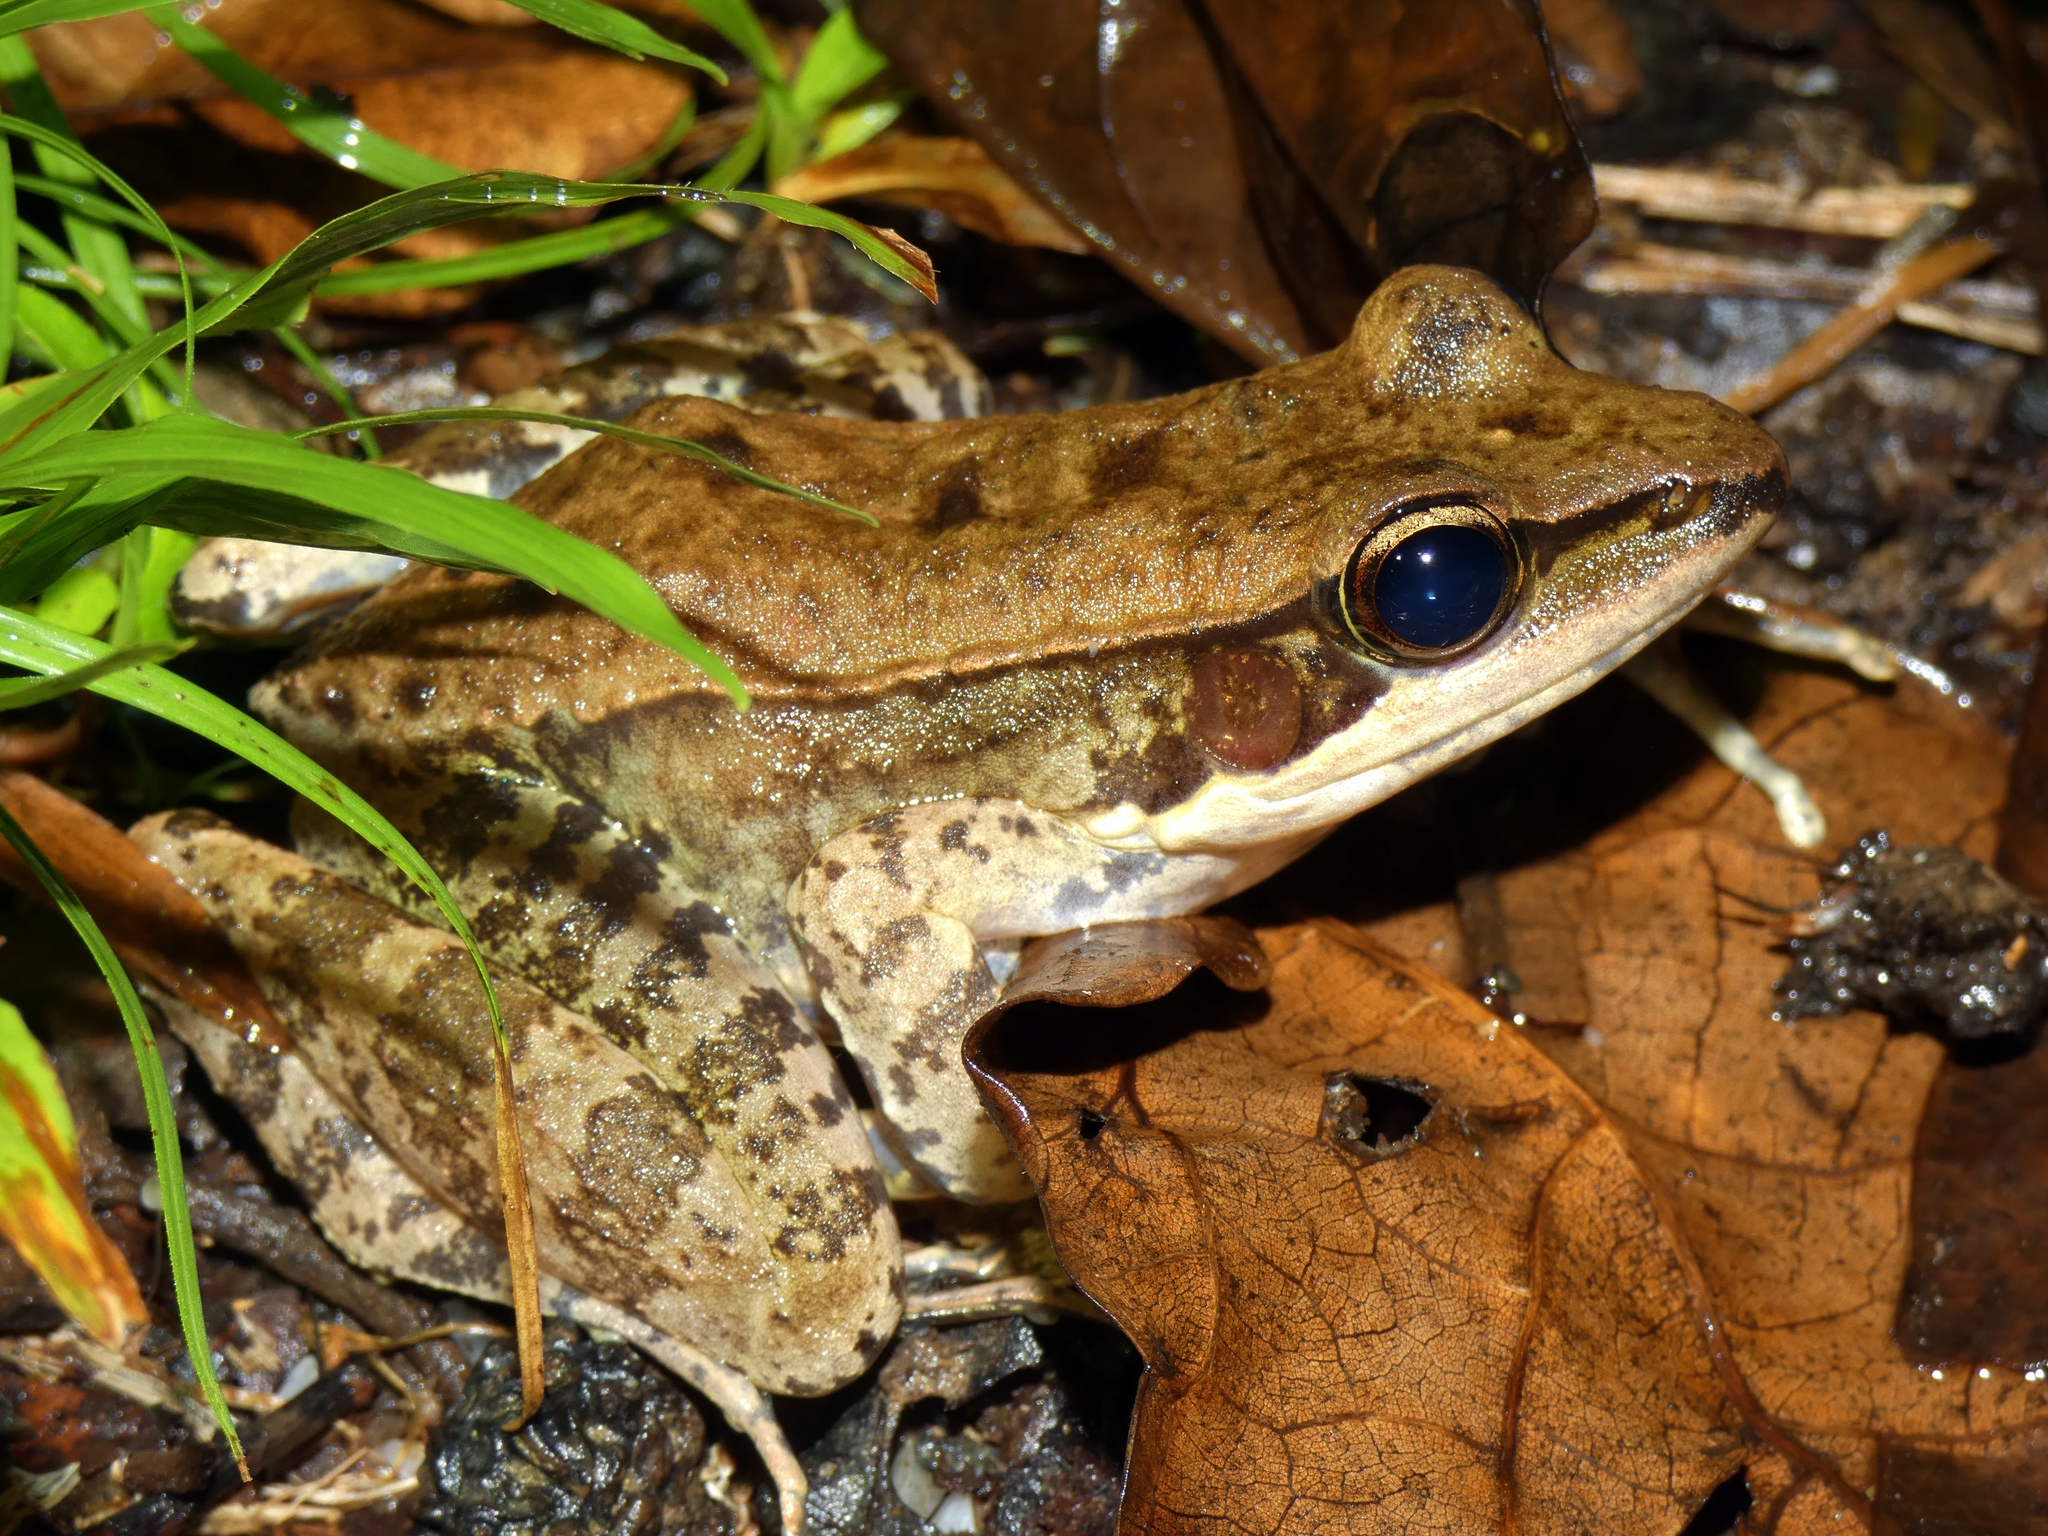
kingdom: Animalia
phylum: Chordata
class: Amphibia
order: Anura
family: Ranidae
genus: Papurana
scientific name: Papurana daemeli
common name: Arhem rana
